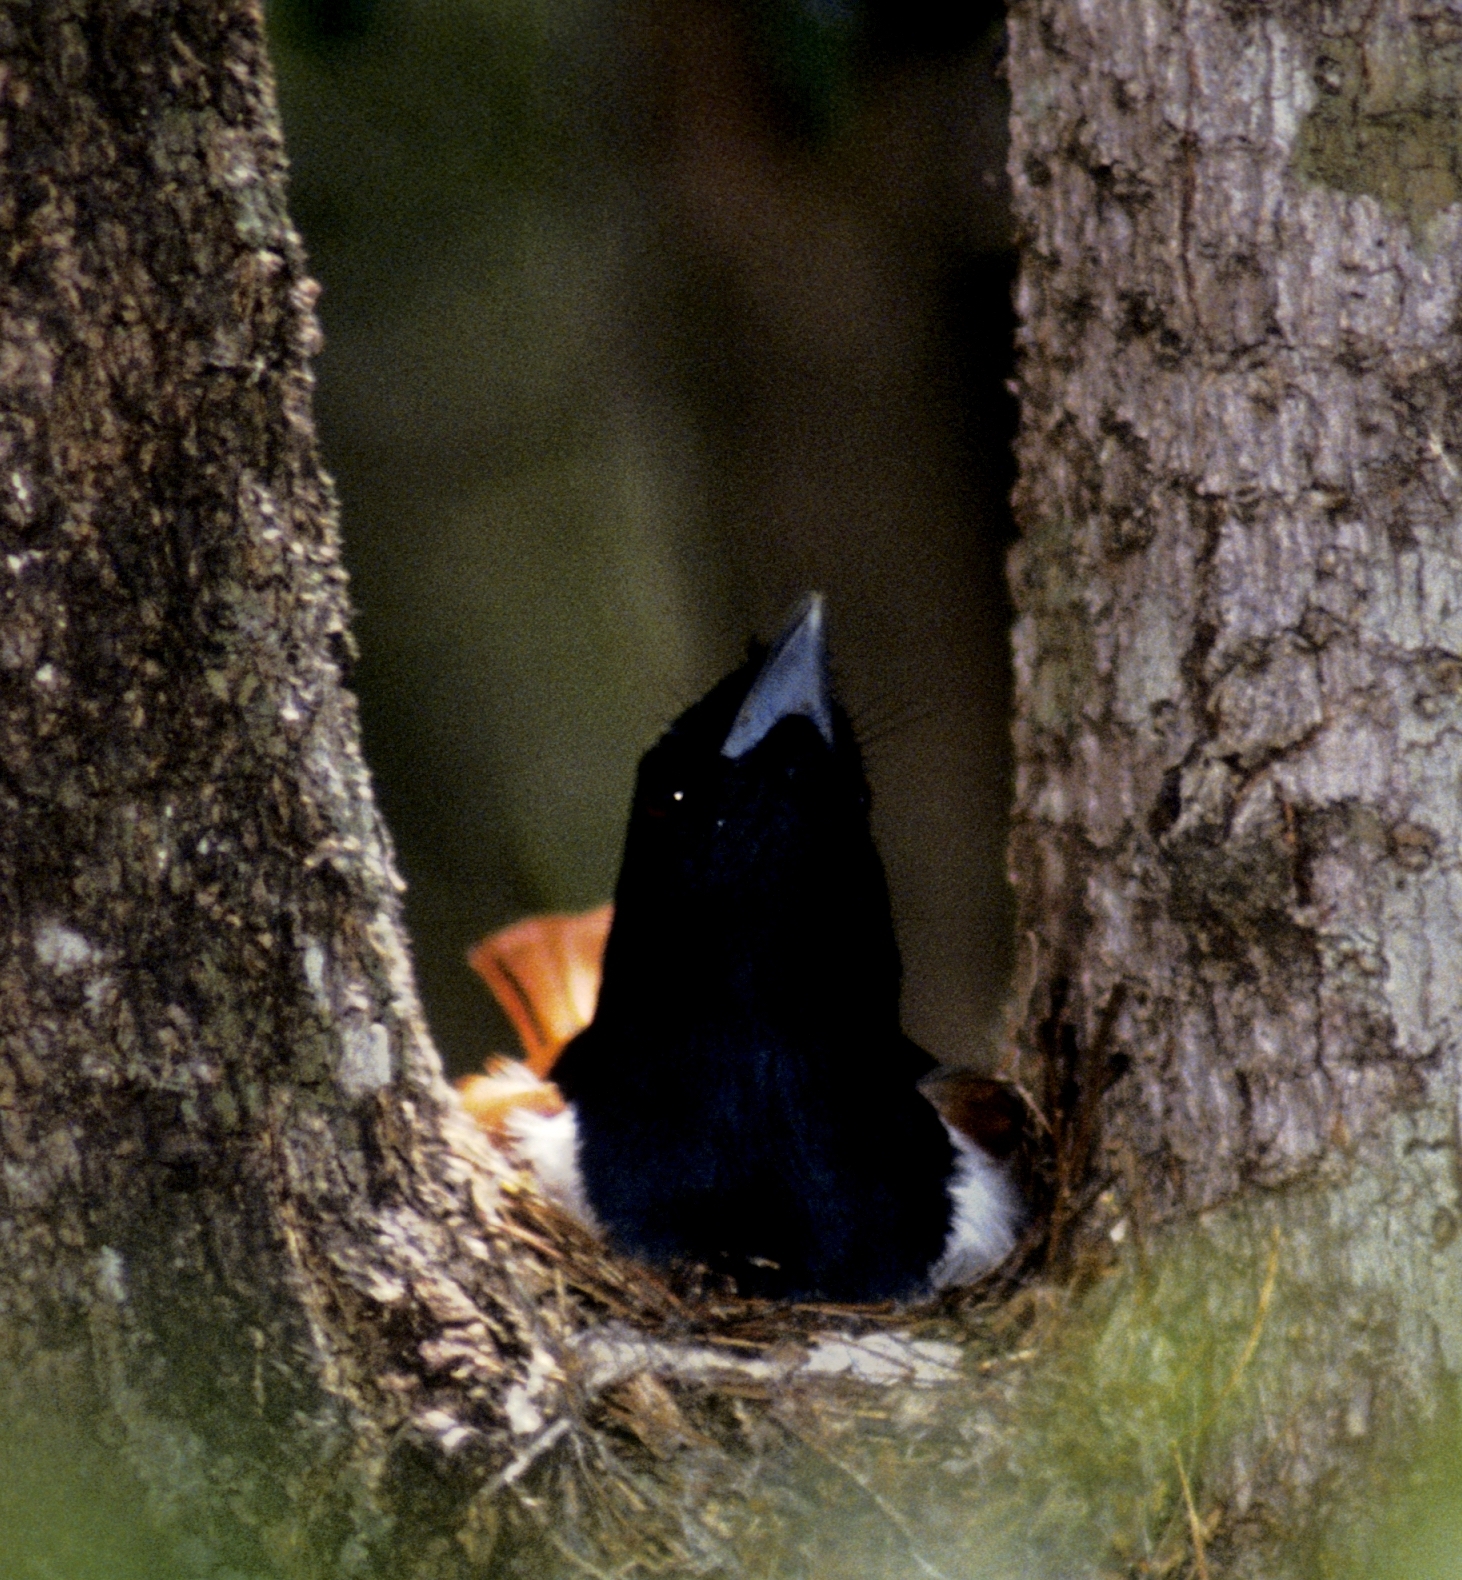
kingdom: Animalia
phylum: Chordata
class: Aves
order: Passeriformes
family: Vangidae
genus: Schetba
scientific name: Schetba rufa
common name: Rufous vanga
